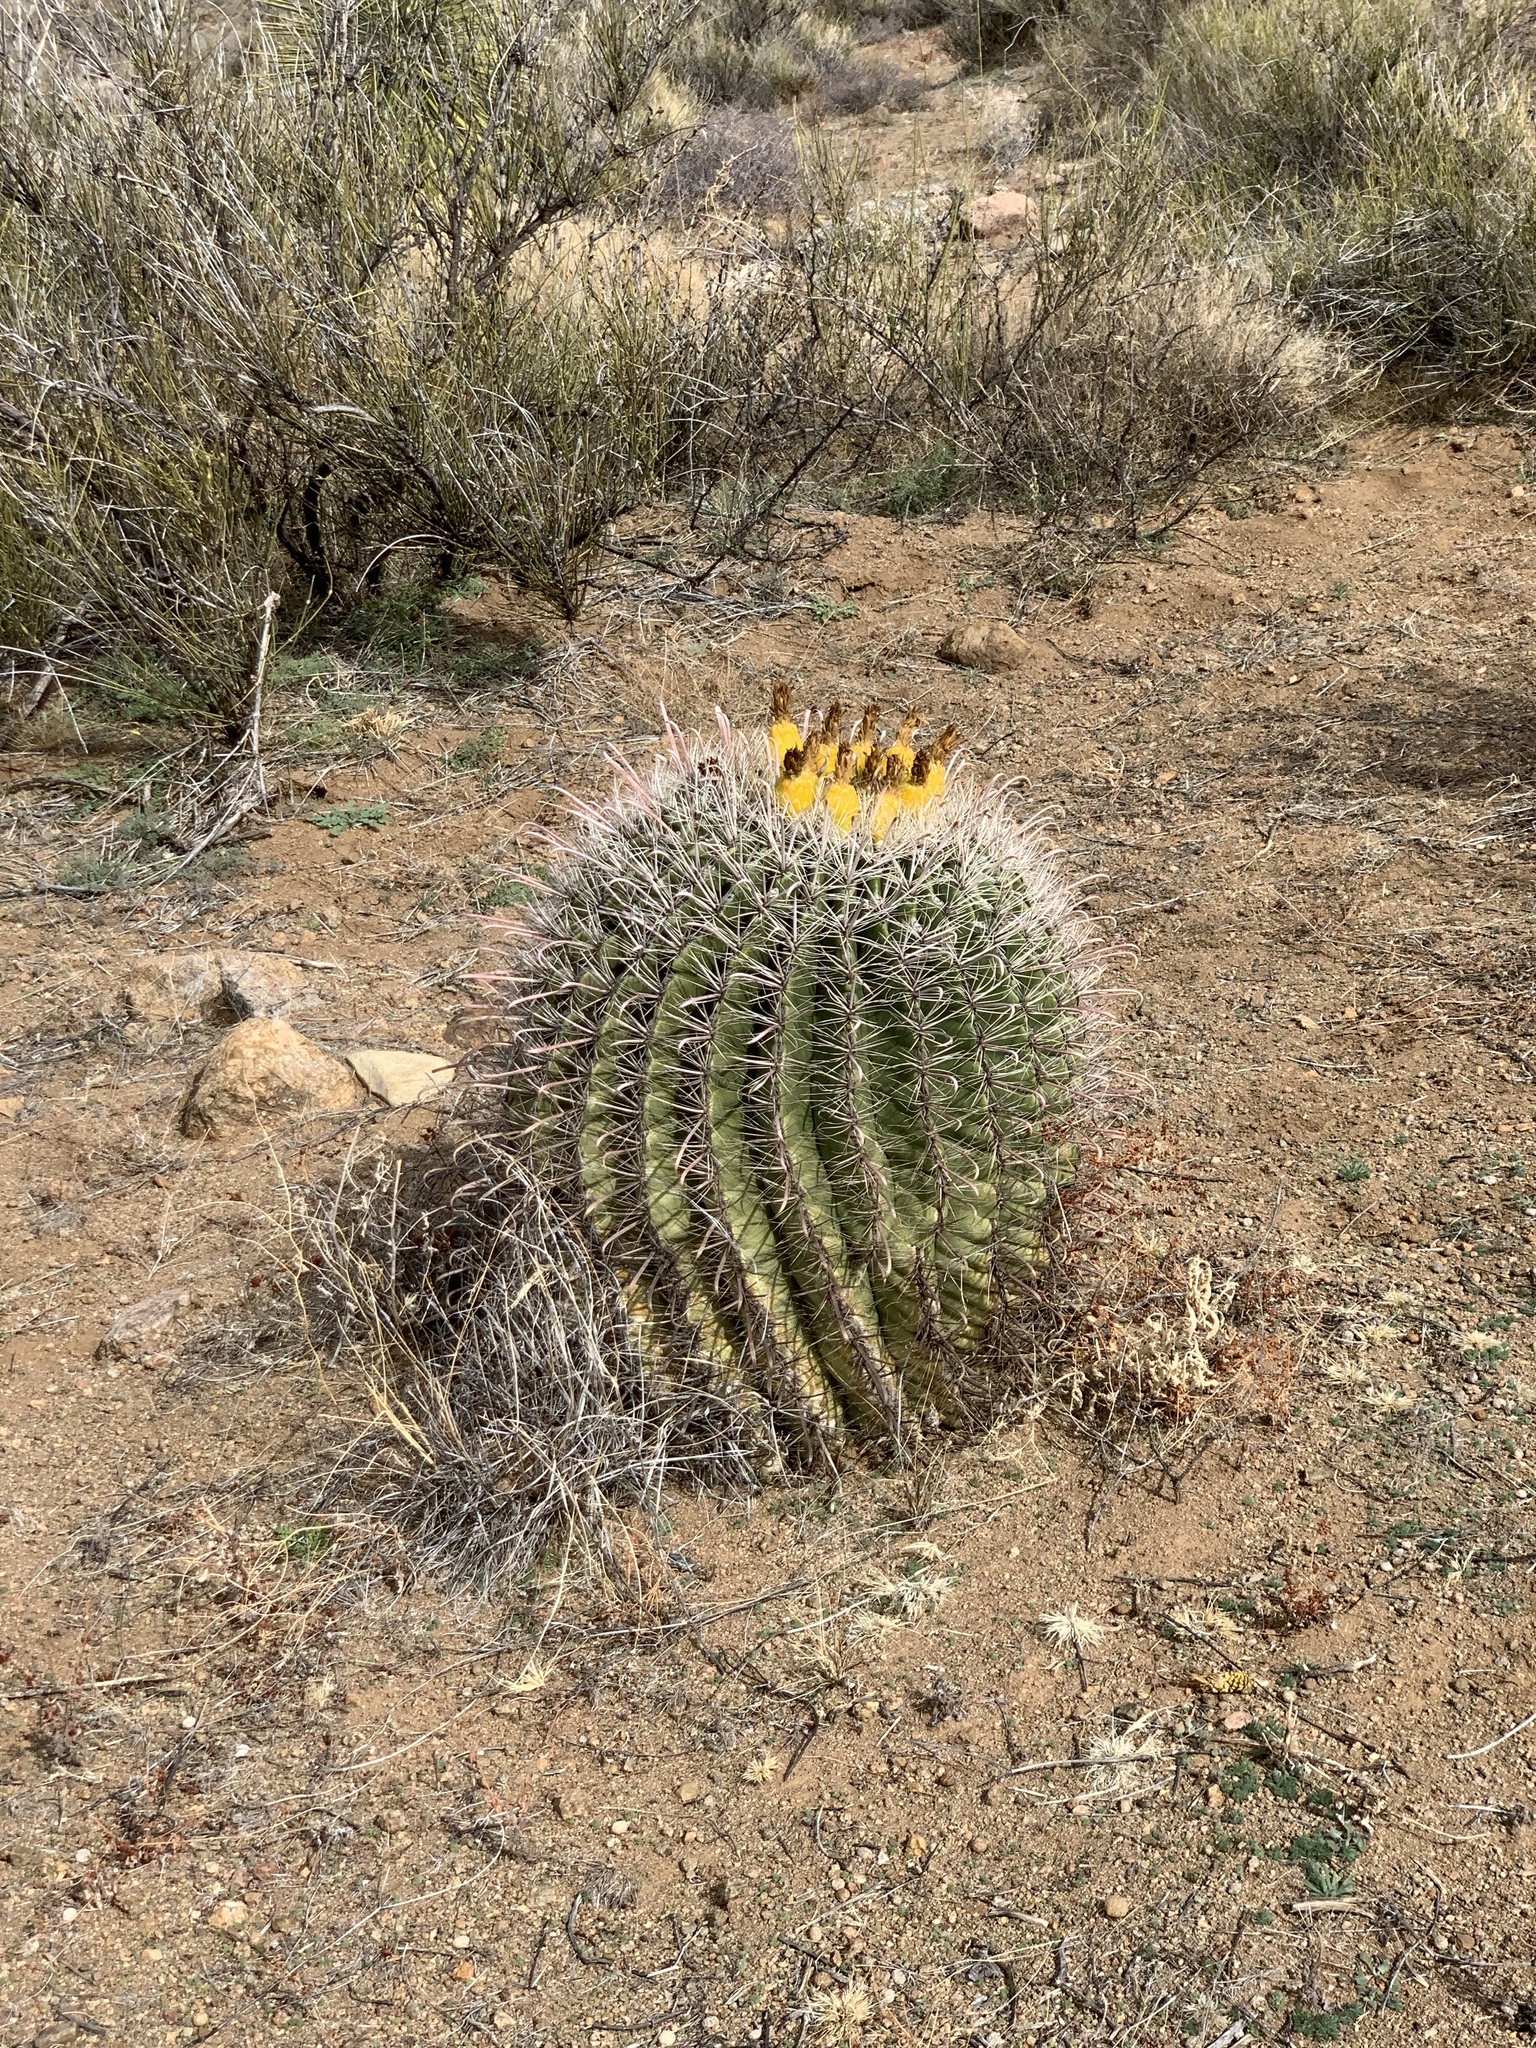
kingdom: Plantae
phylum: Tracheophyta
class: Magnoliopsida
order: Caryophyllales
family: Cactaceae
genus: Ferocactus
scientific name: Ferocactus wislizeni
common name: Candy barrel cactus
